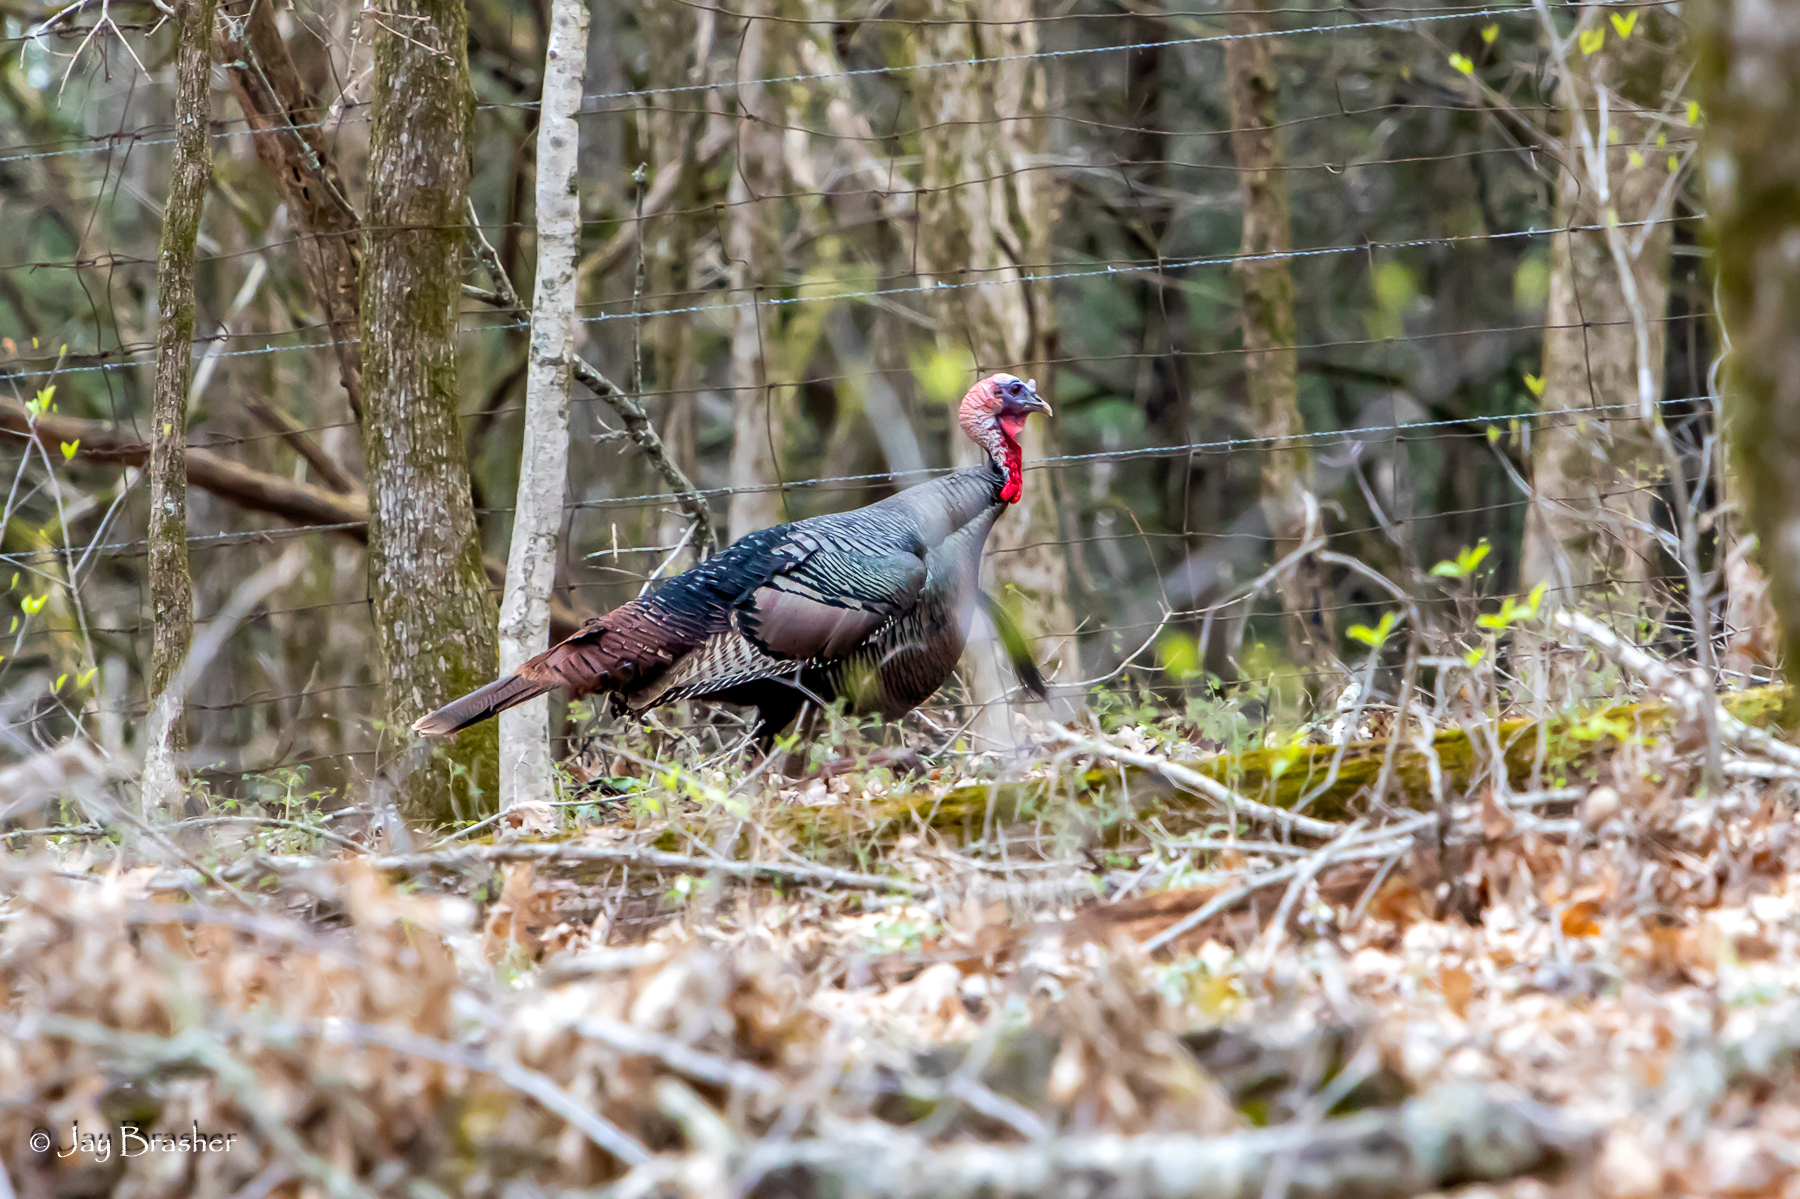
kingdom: Animalia
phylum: Chordata
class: Aves
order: Galliformes
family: Phasianidae
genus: Meleagris
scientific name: Meleagris gallopavo
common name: Wild turkey
